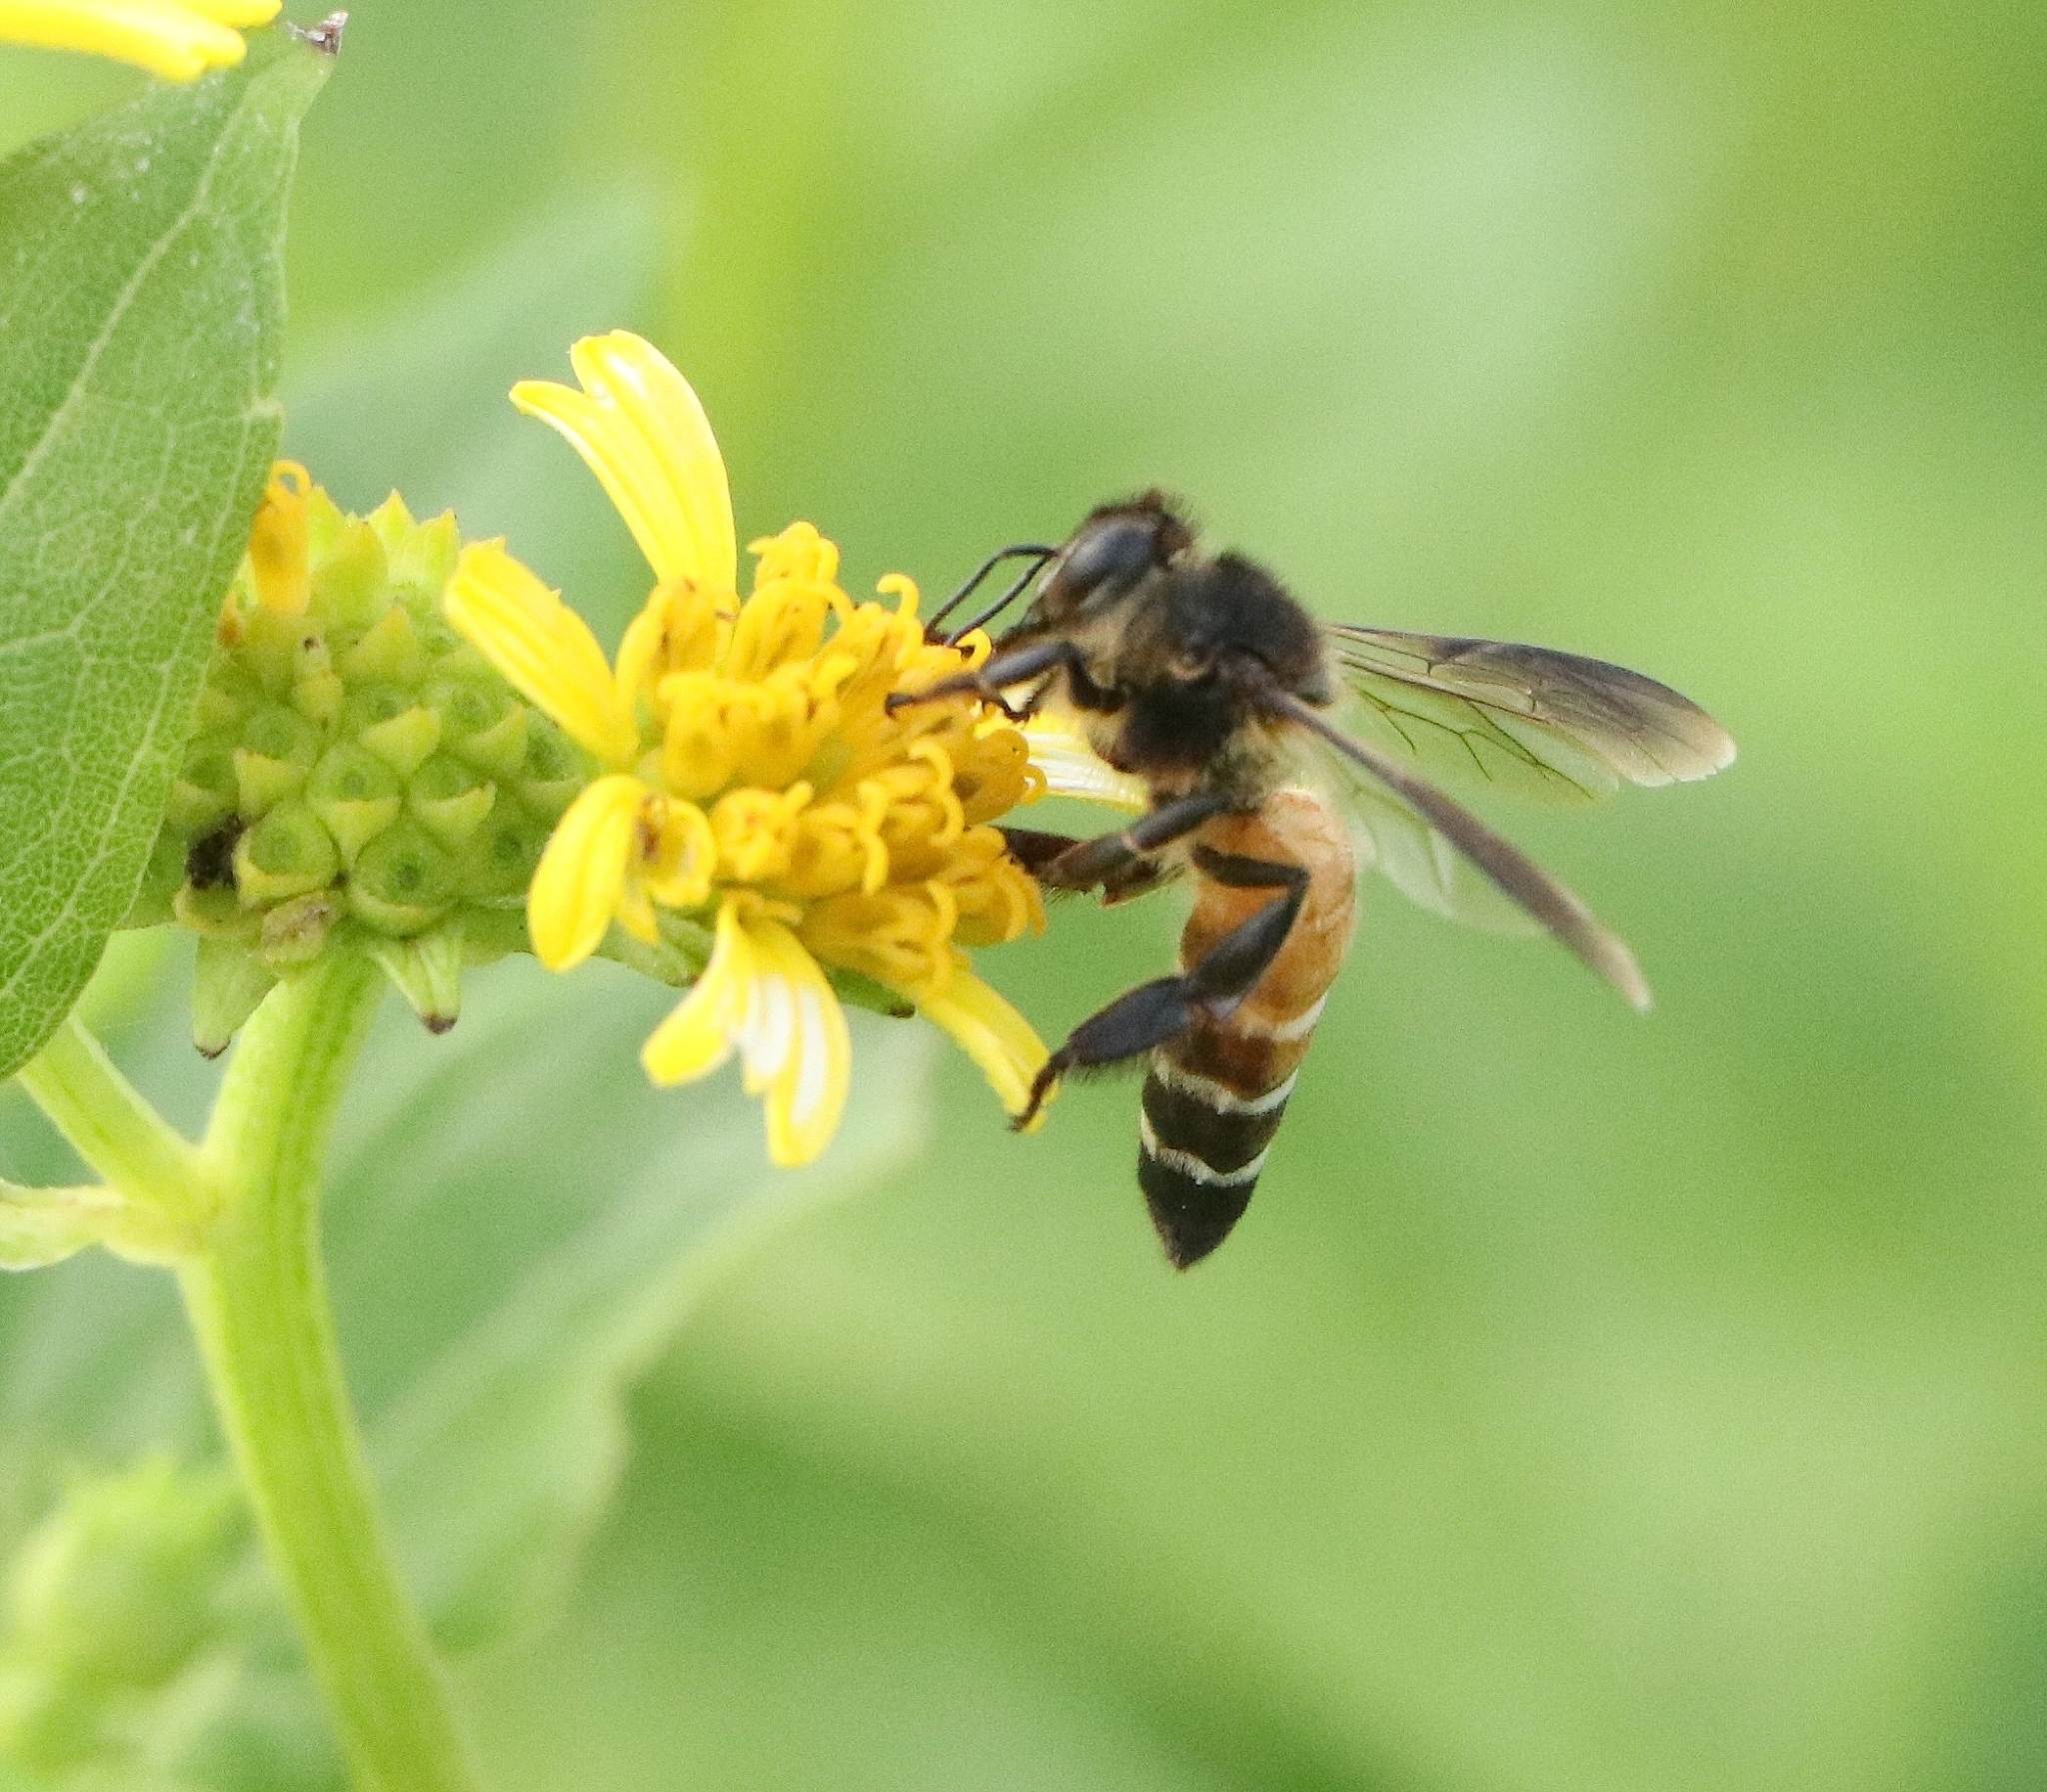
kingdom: Animalia
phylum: Arthropoda
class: Insecta
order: Hymenoptera
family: Apidae
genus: Apis
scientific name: Apis dorsata
